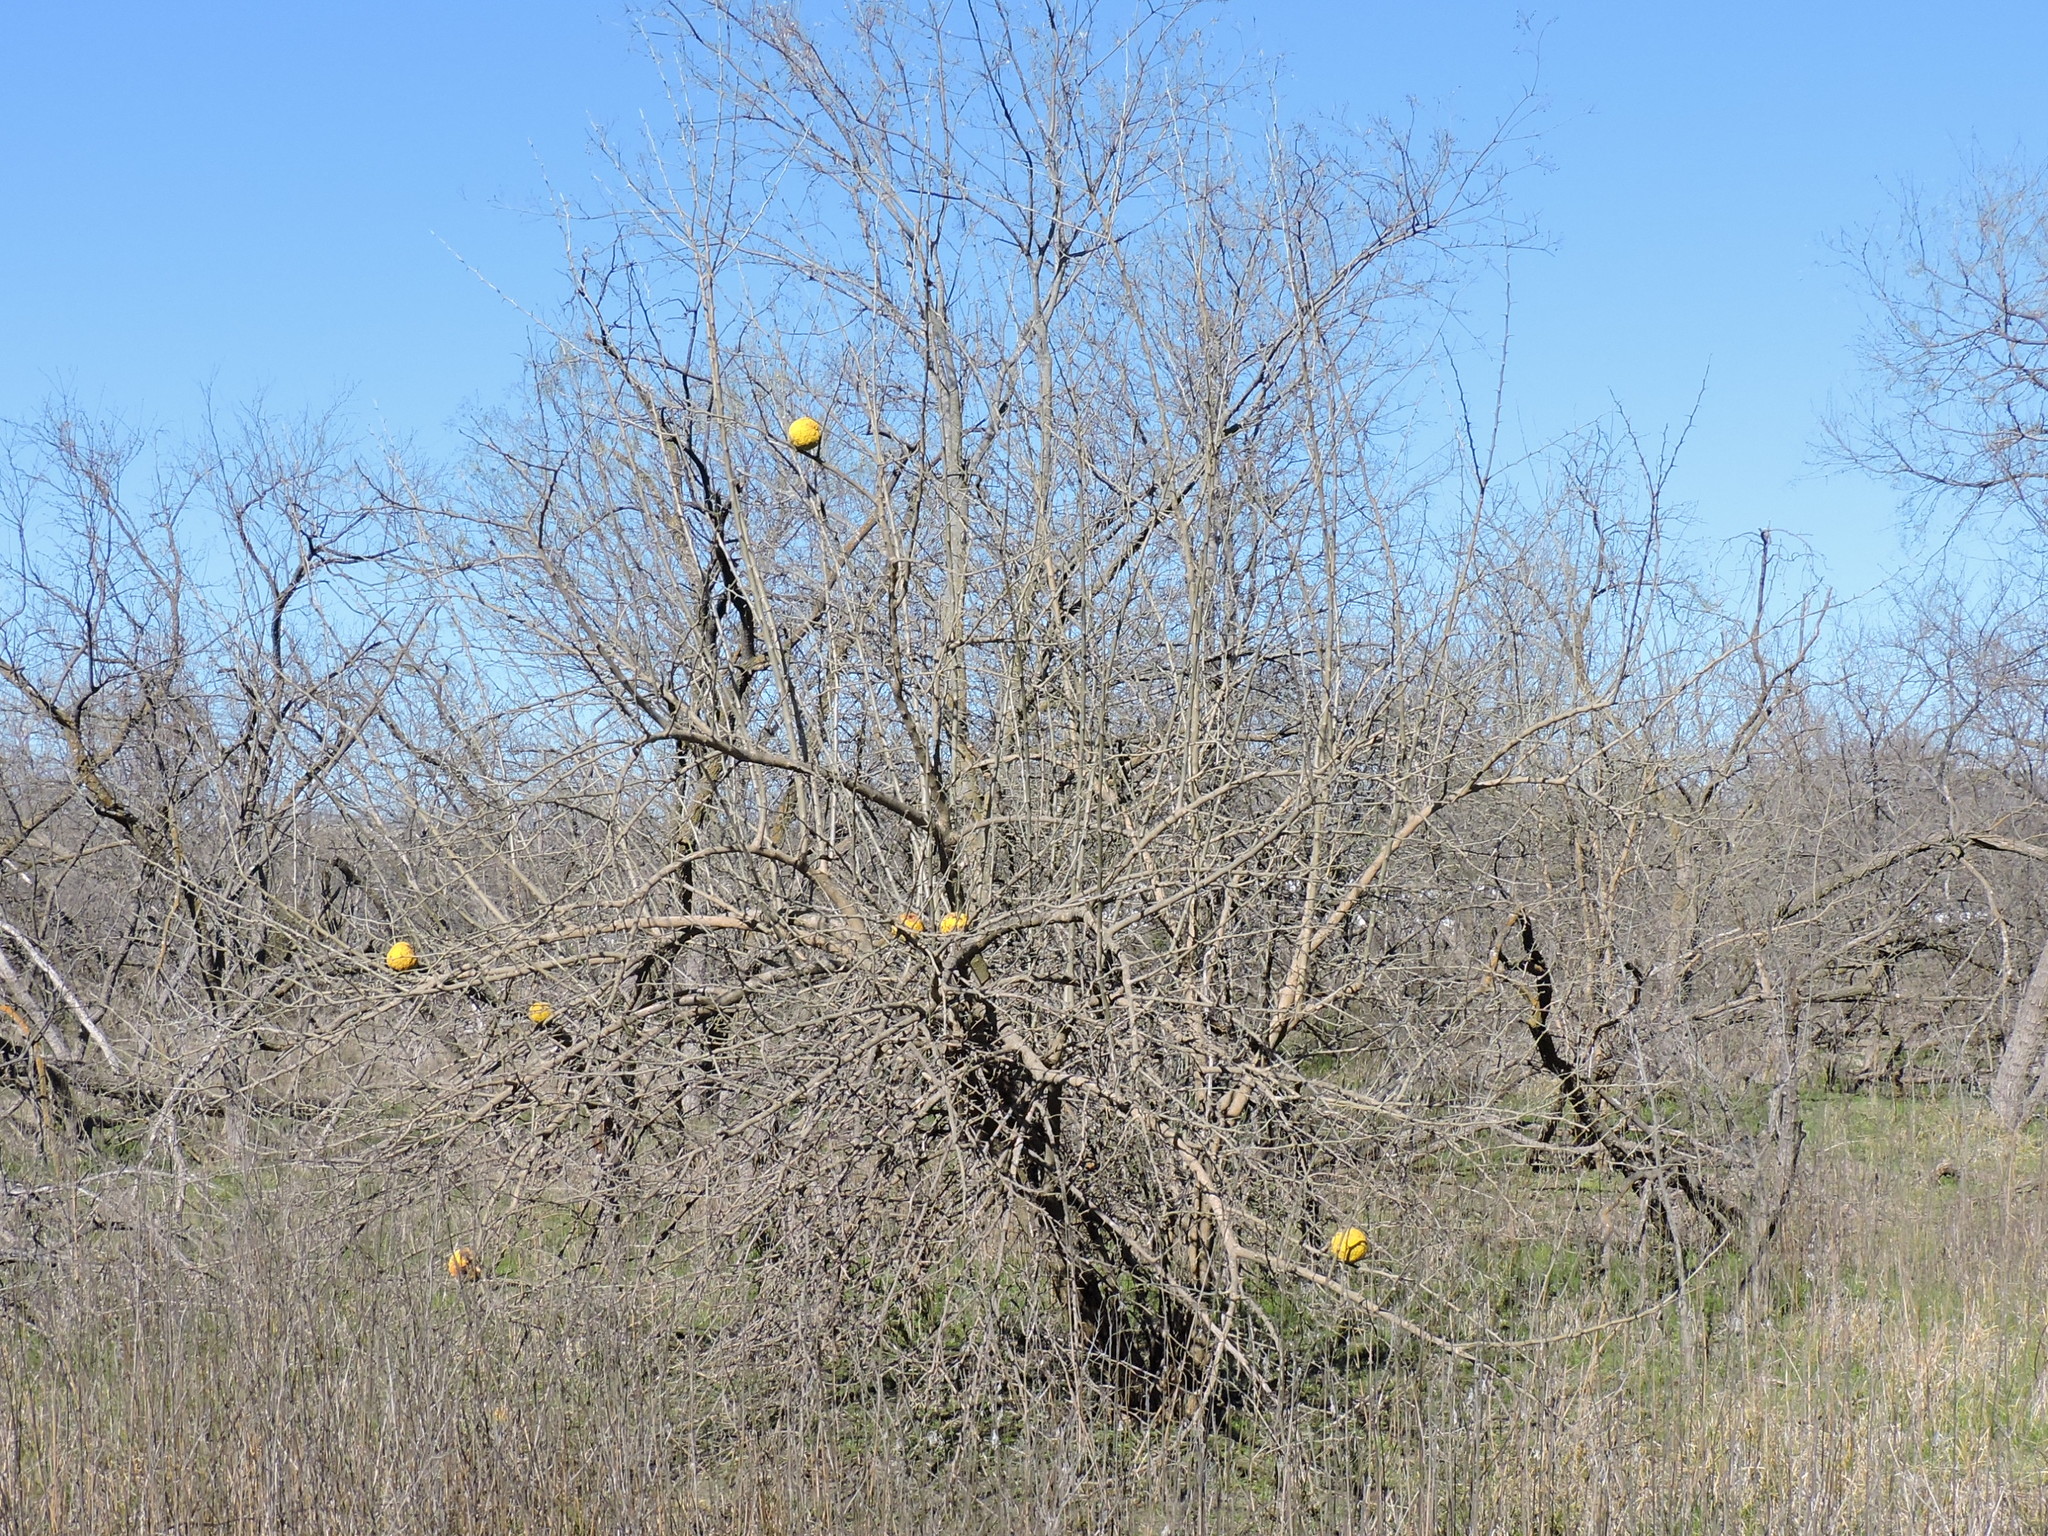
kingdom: Plantae
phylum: Tracheophyta
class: Magnoliopsida
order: Rosales
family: Moraceae
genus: Maclura
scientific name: Maclura pomifera
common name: Osage-orange
